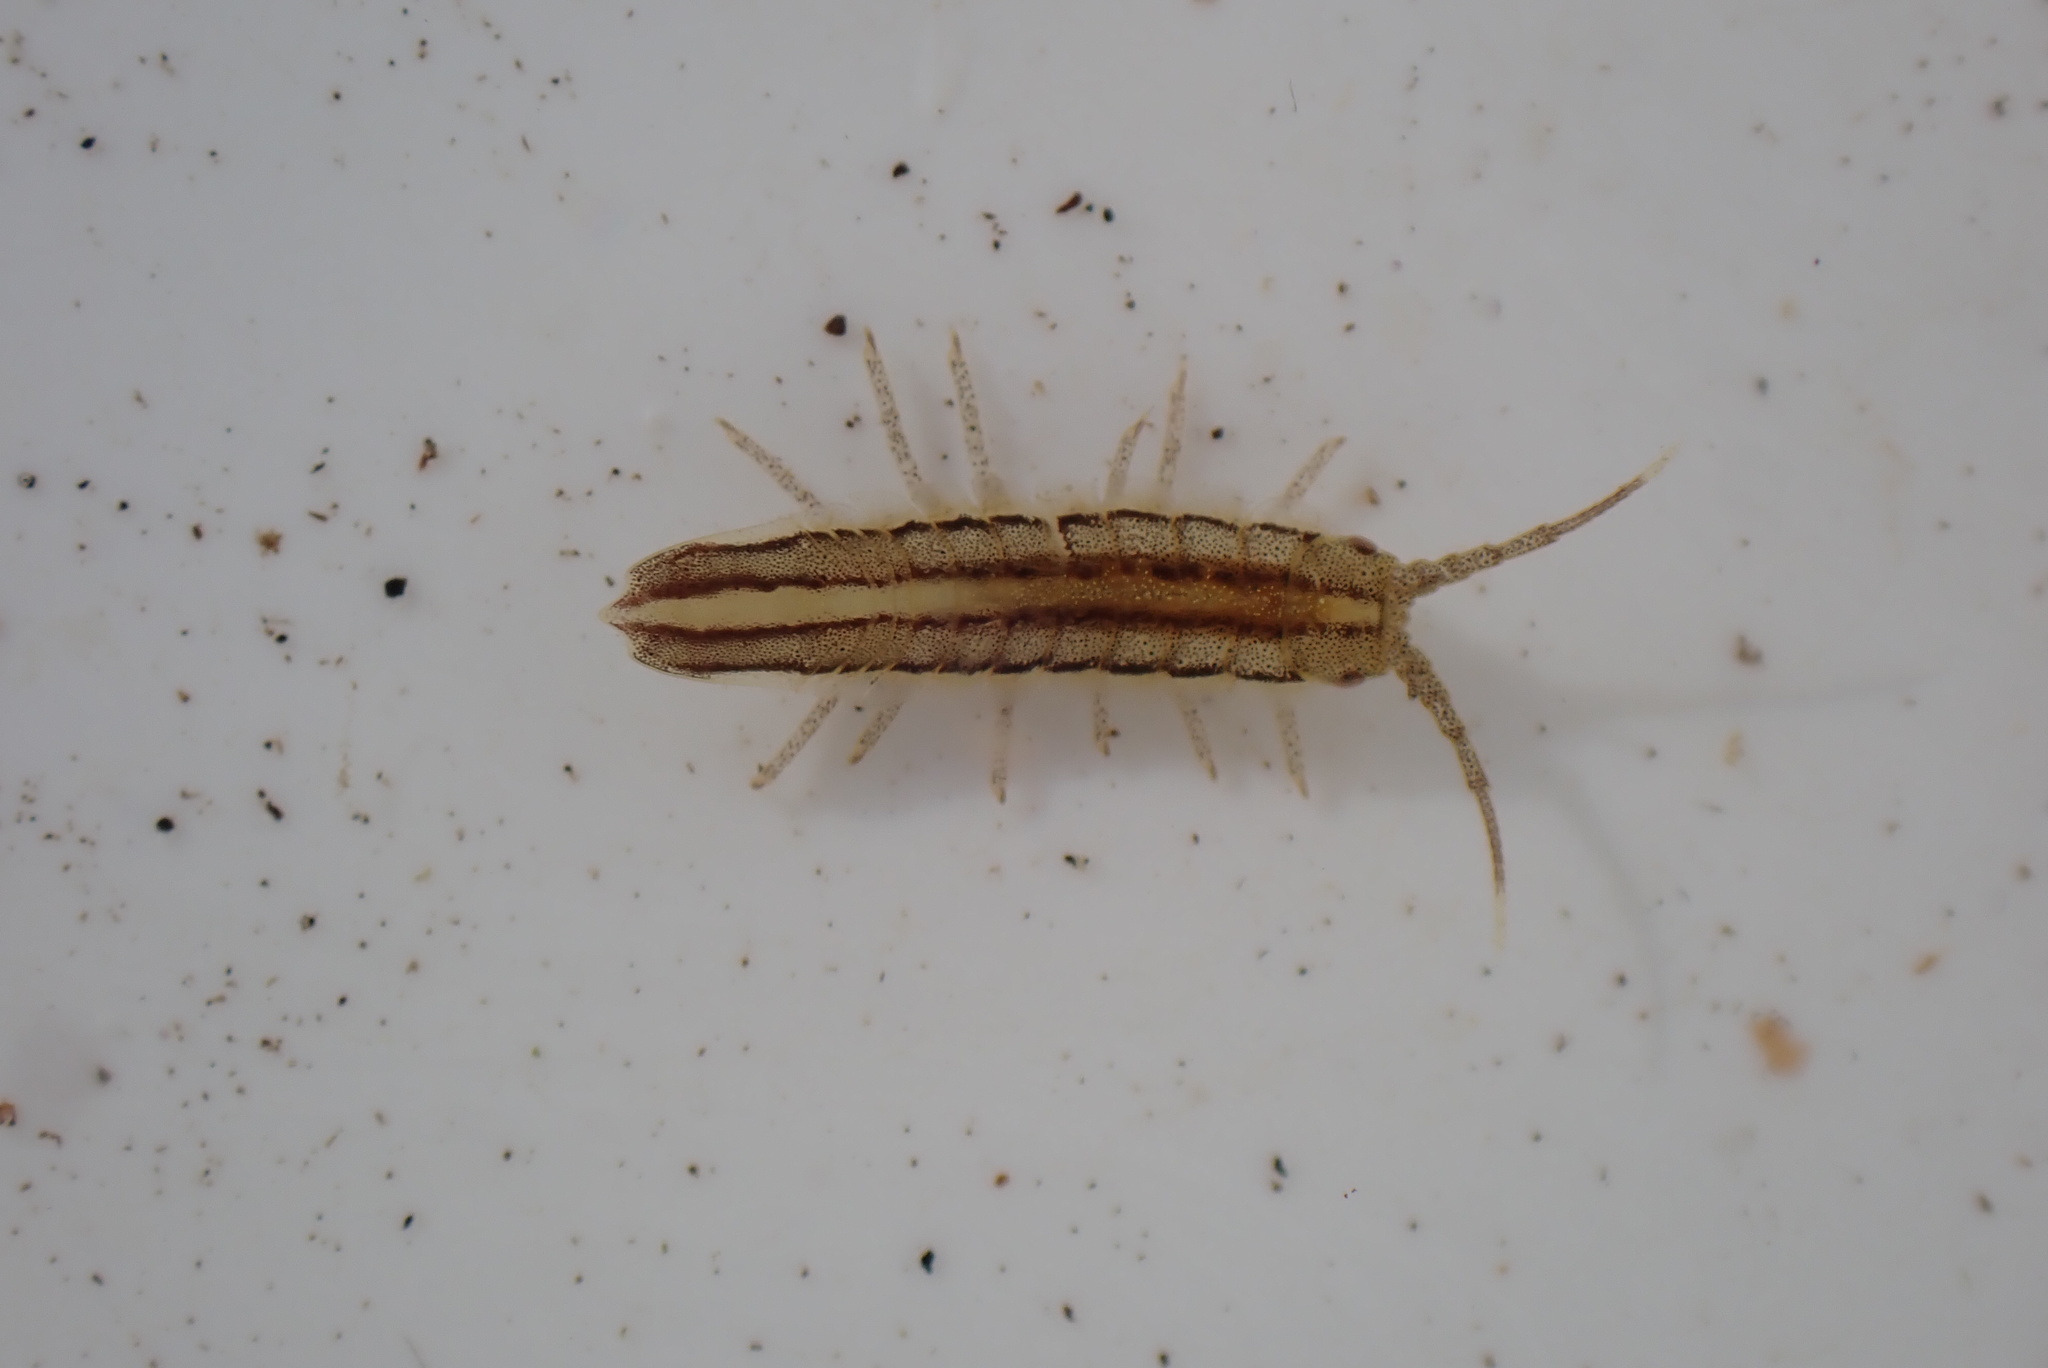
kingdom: Animalia
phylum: Arthropoda
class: Malacostraca
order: Isopoda
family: Idoteidae
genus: Idotea
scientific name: Idotea balthica
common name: Baltic isopod
